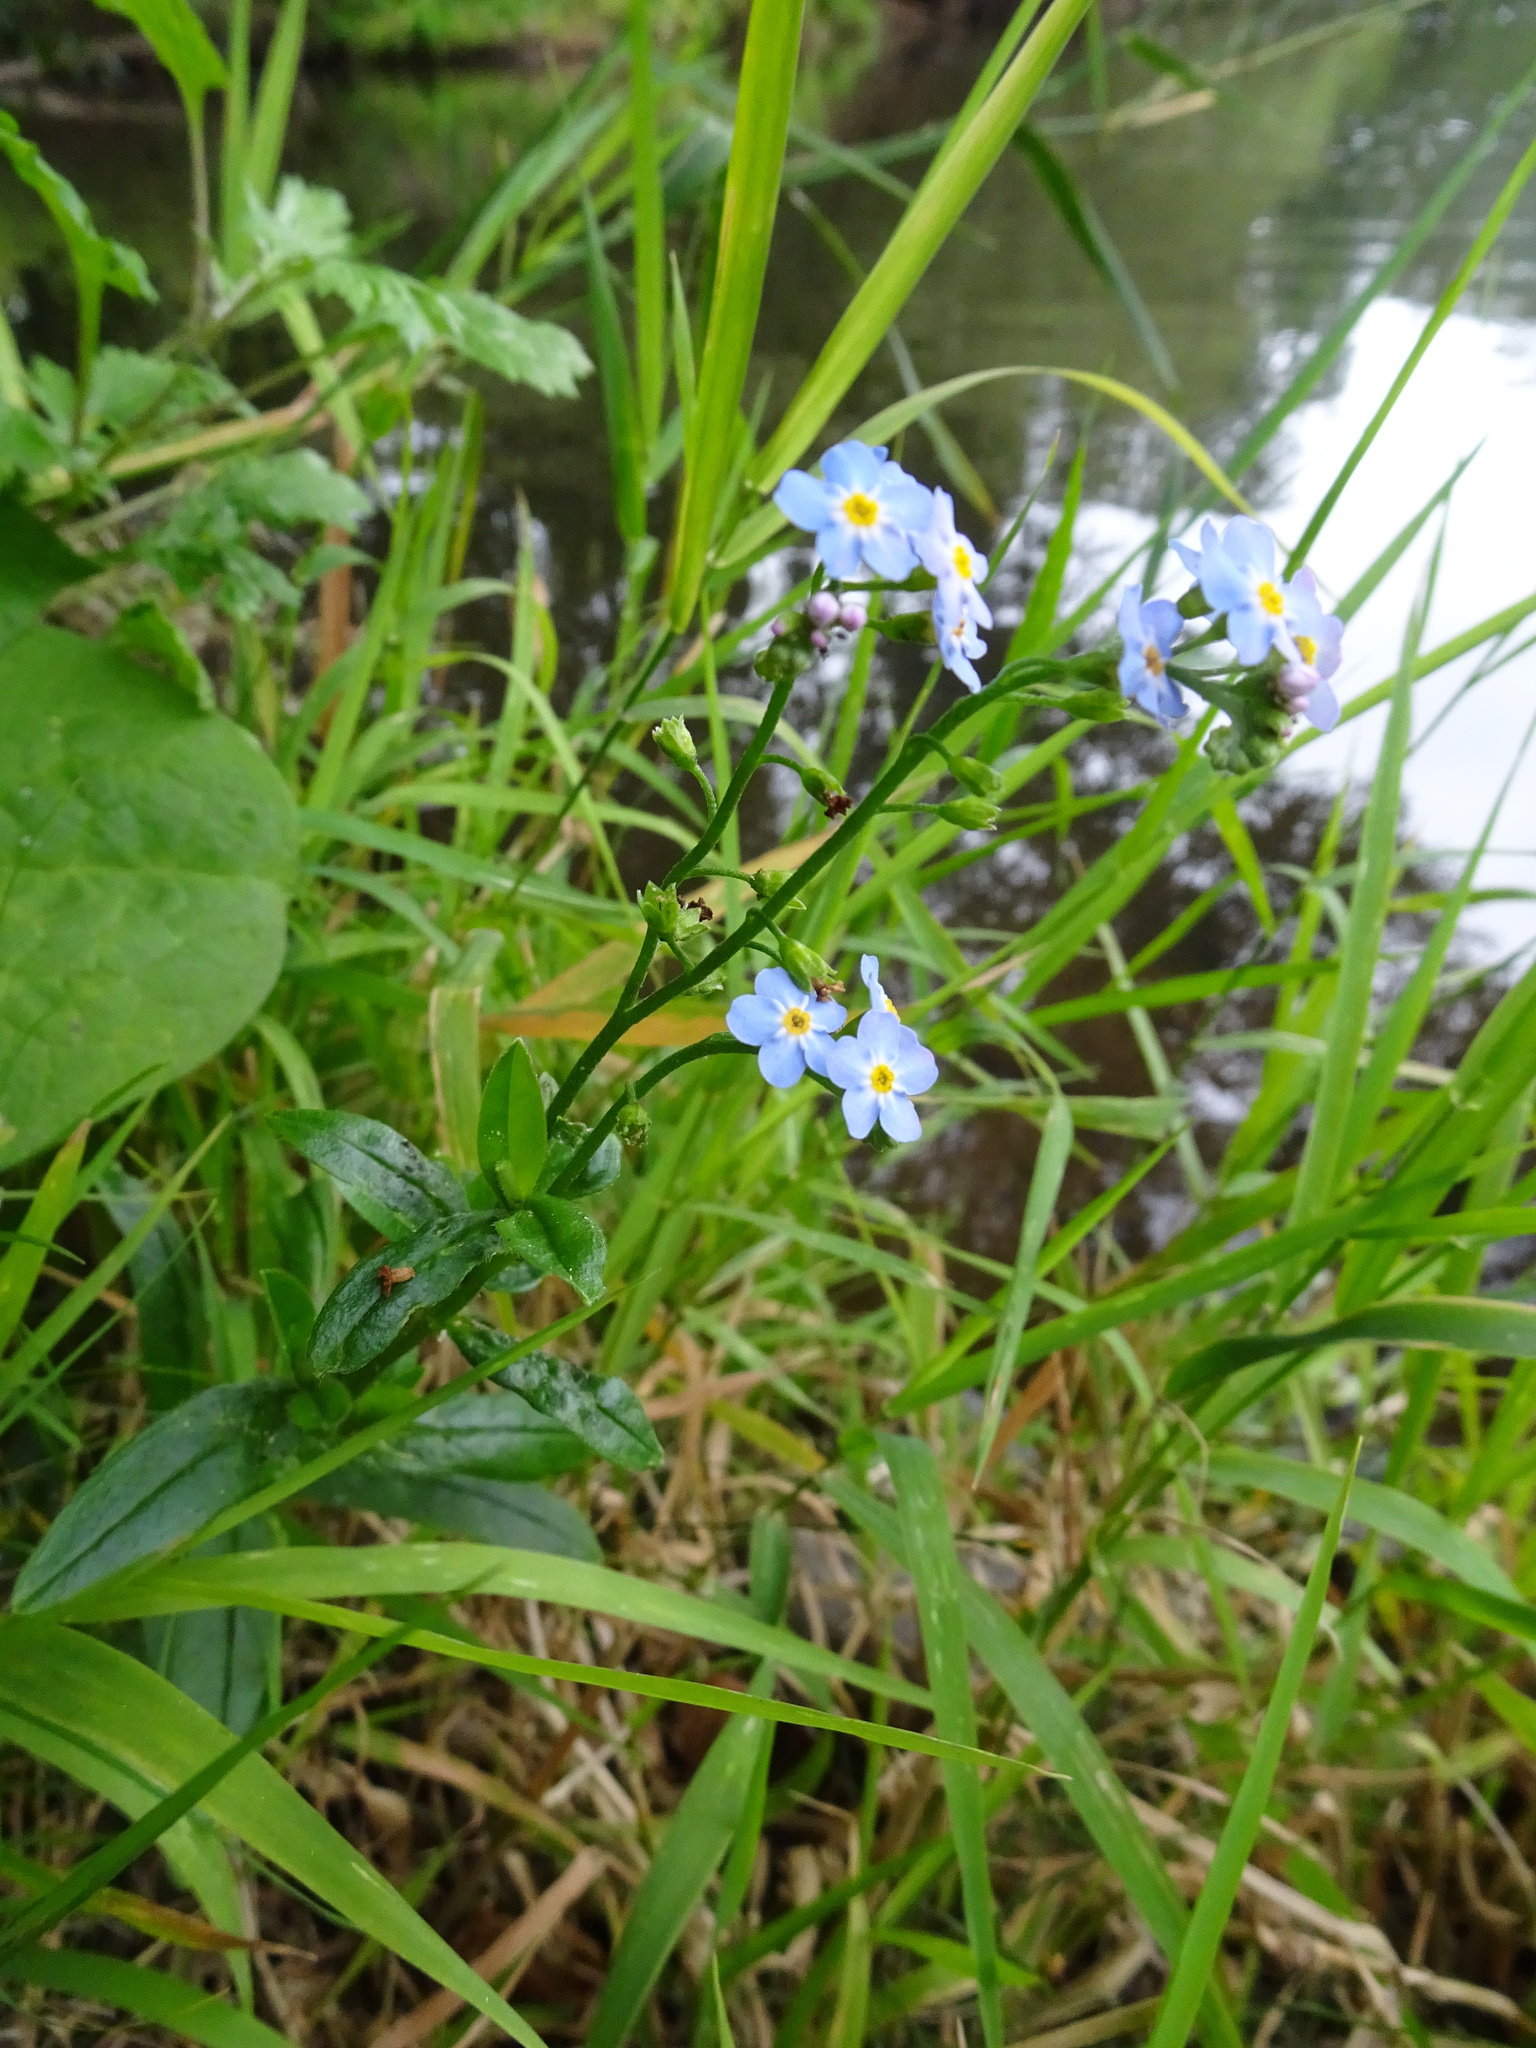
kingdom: Plantae
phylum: Tracheophyta
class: Magnoliopsida
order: Boraginales
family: Boraginaceae
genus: Myosotis
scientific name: Myosotis scorpioides
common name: Water forget-me-not
